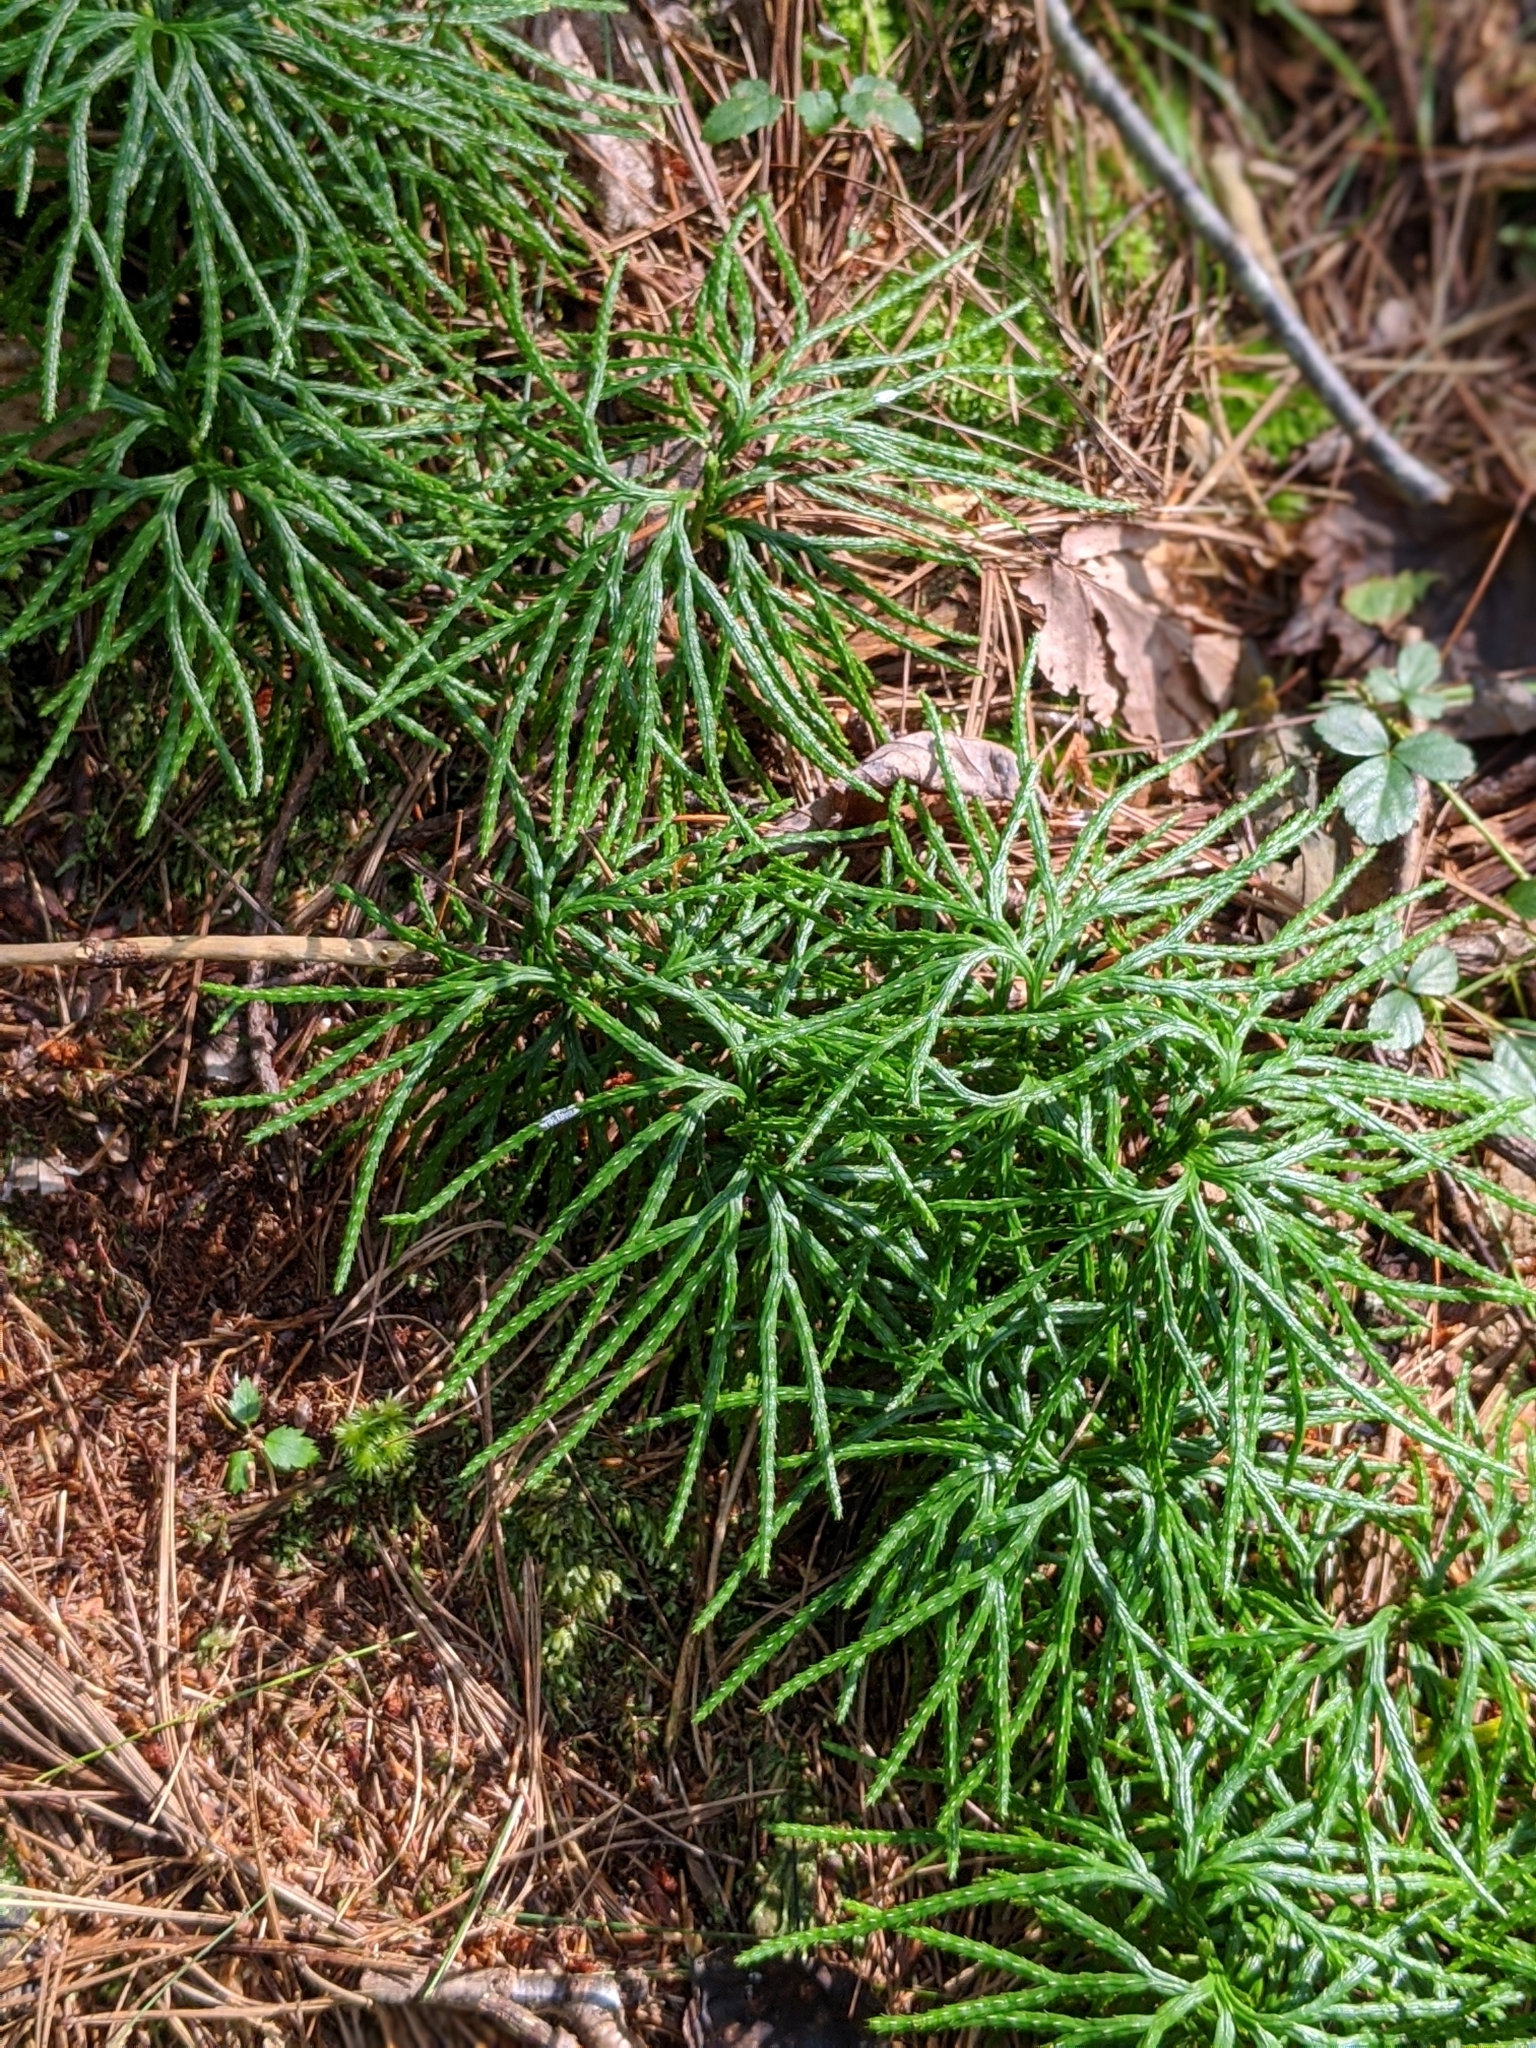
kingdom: Plantae
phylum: Tracheophyta
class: Lycopodiopsida
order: Lycopodiales
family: Lycopodiaceae
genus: Diphasiastrum
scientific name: Diphasiastrum digitatum
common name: Southern running-pine
